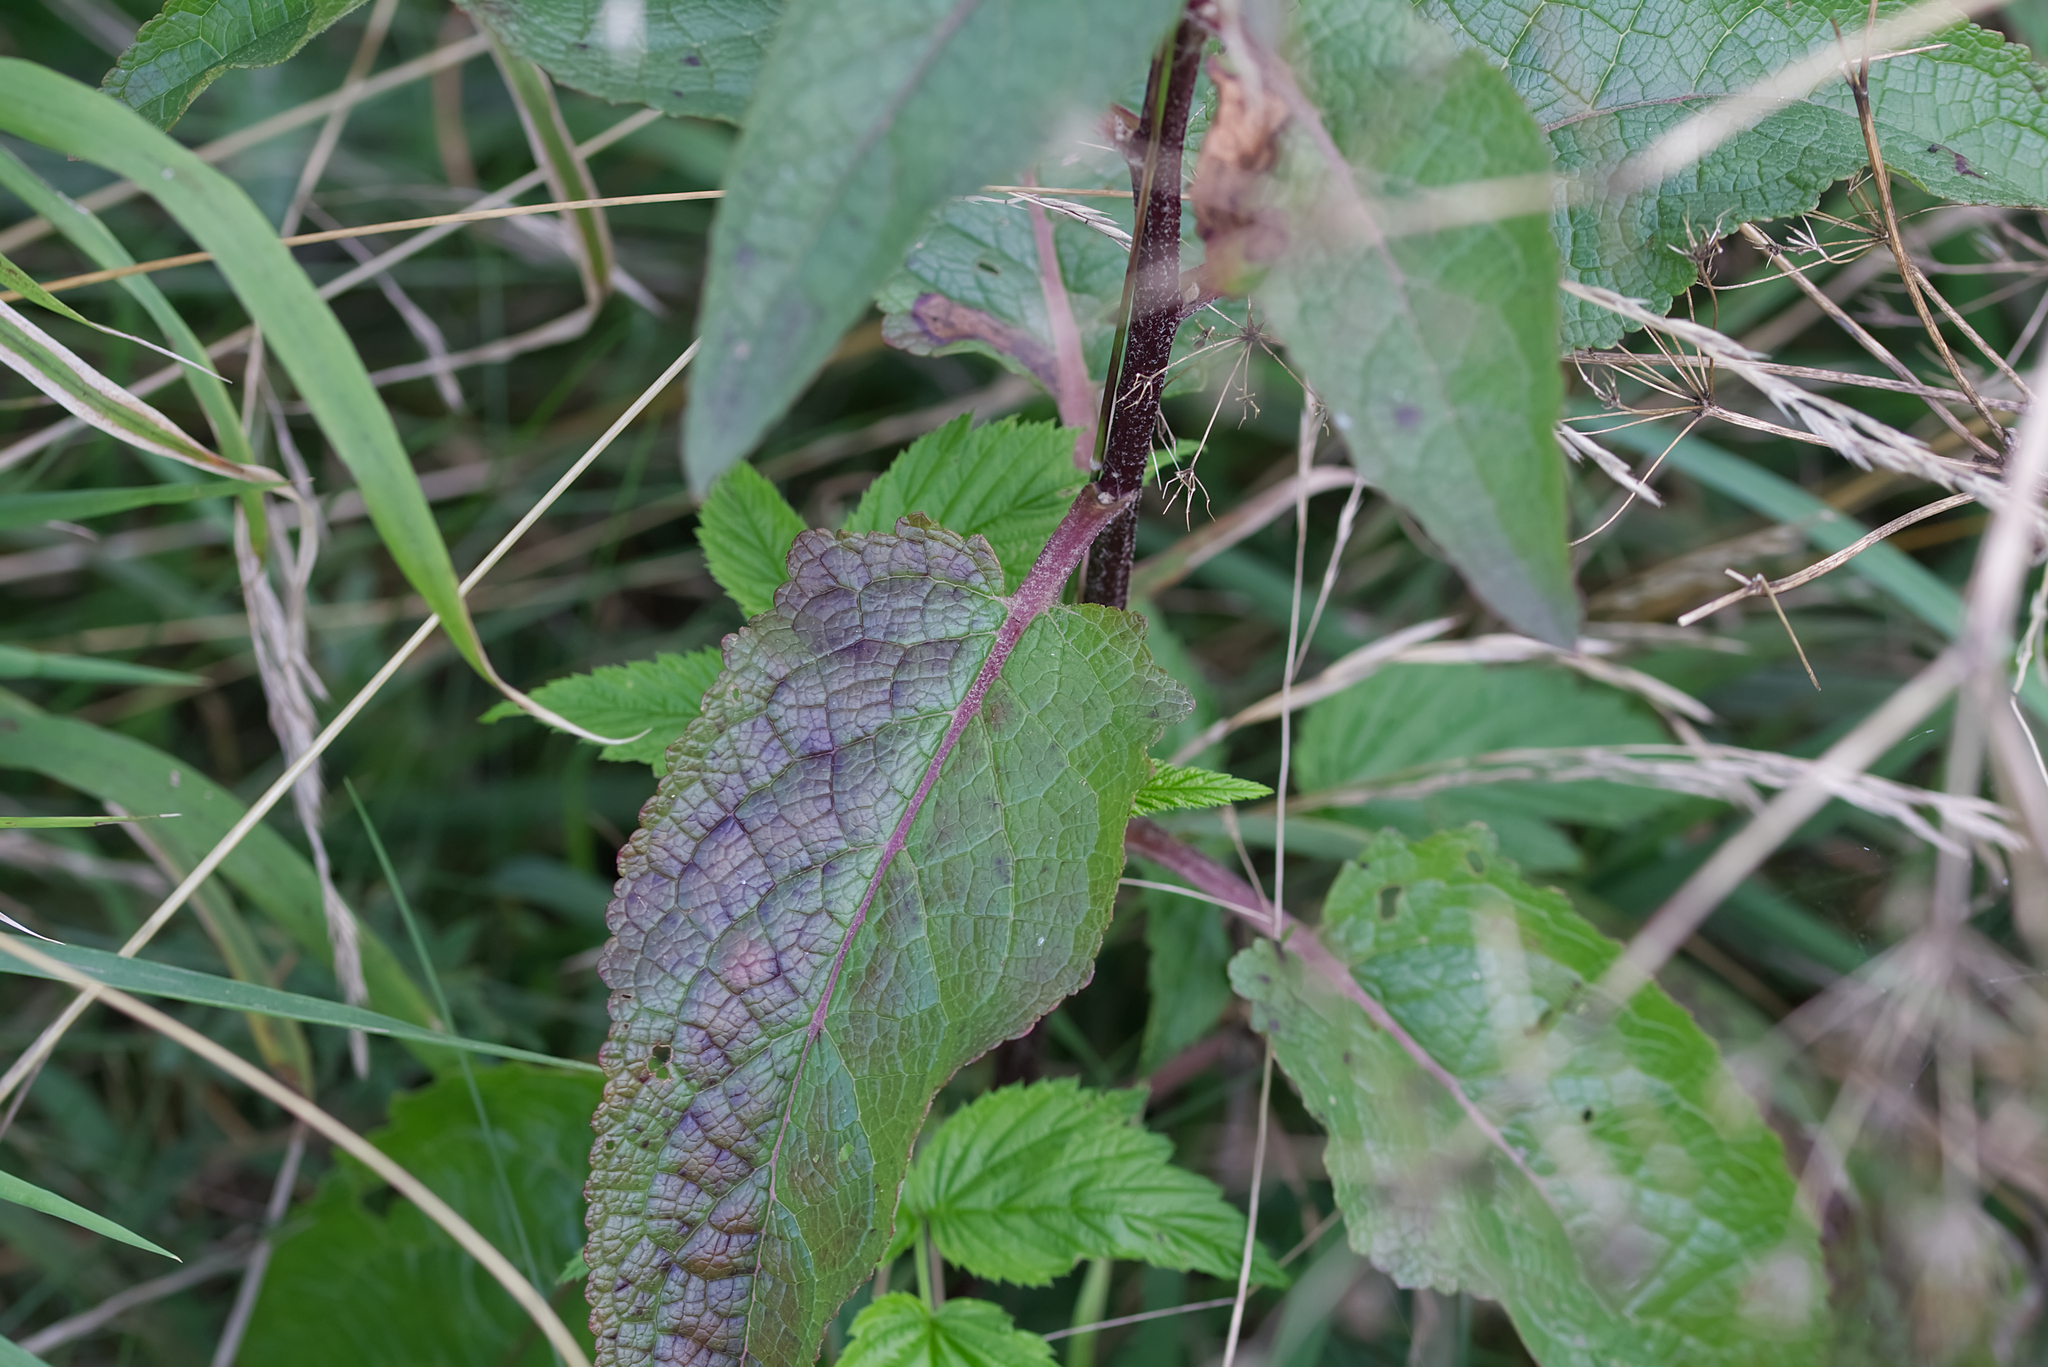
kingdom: Plantae
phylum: Tracheophyta
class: Magnoliopsida
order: Lamiales
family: Scrophulariaceae
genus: Verbascum
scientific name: Verbascum chaixii
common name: Nettle-leaved mullein
